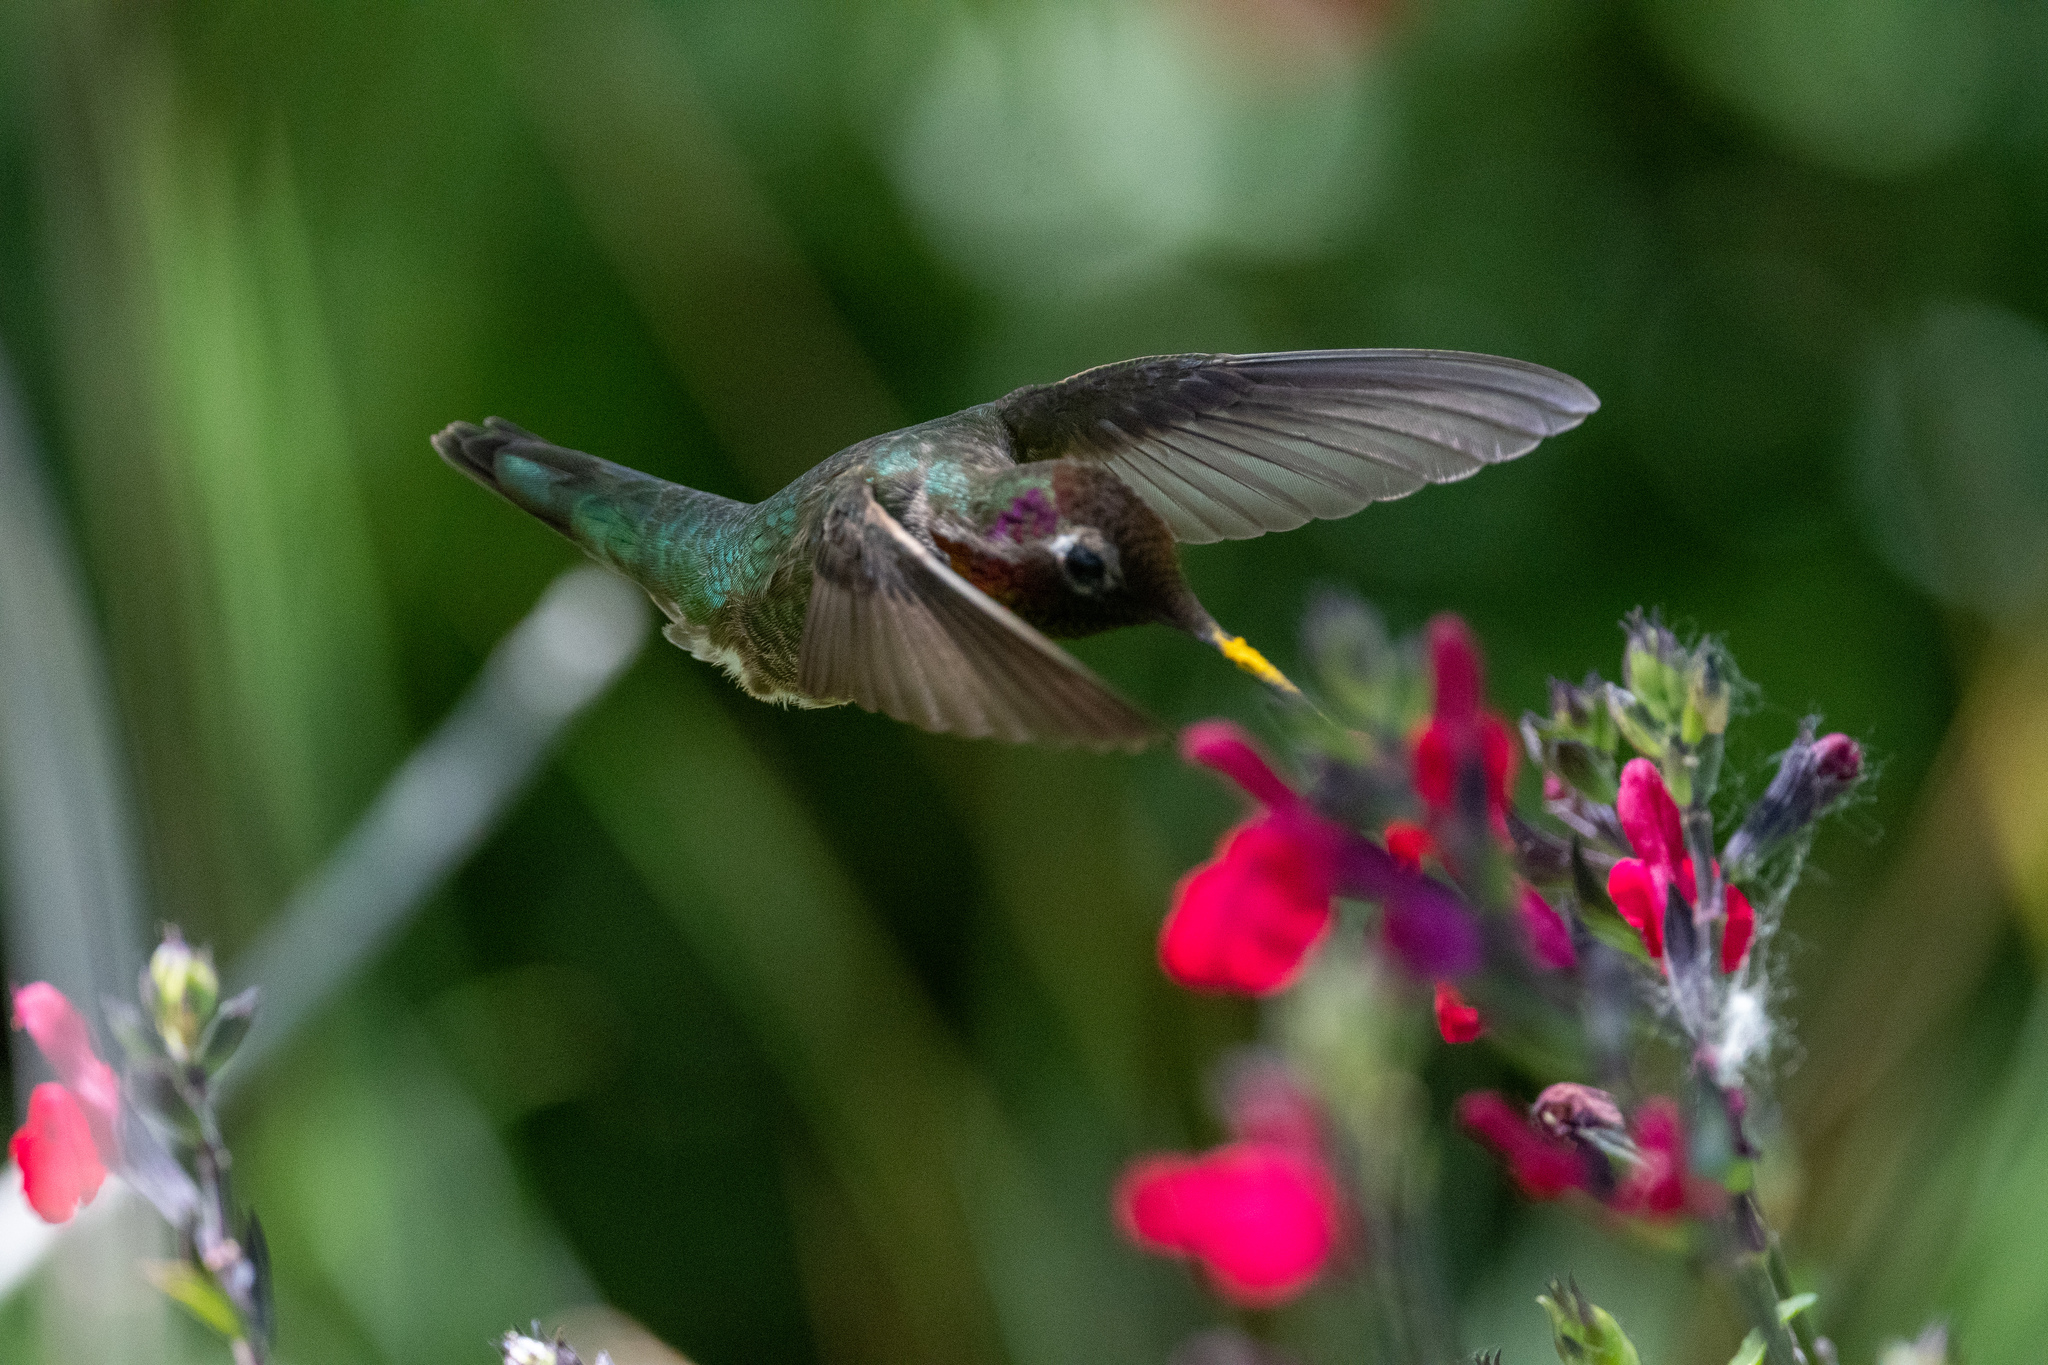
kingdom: Animalia
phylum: Chordata
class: Aves
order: Apodiformes
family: Trochilidae
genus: Calypte
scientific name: Calypte anna
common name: Anna's hummingbird
